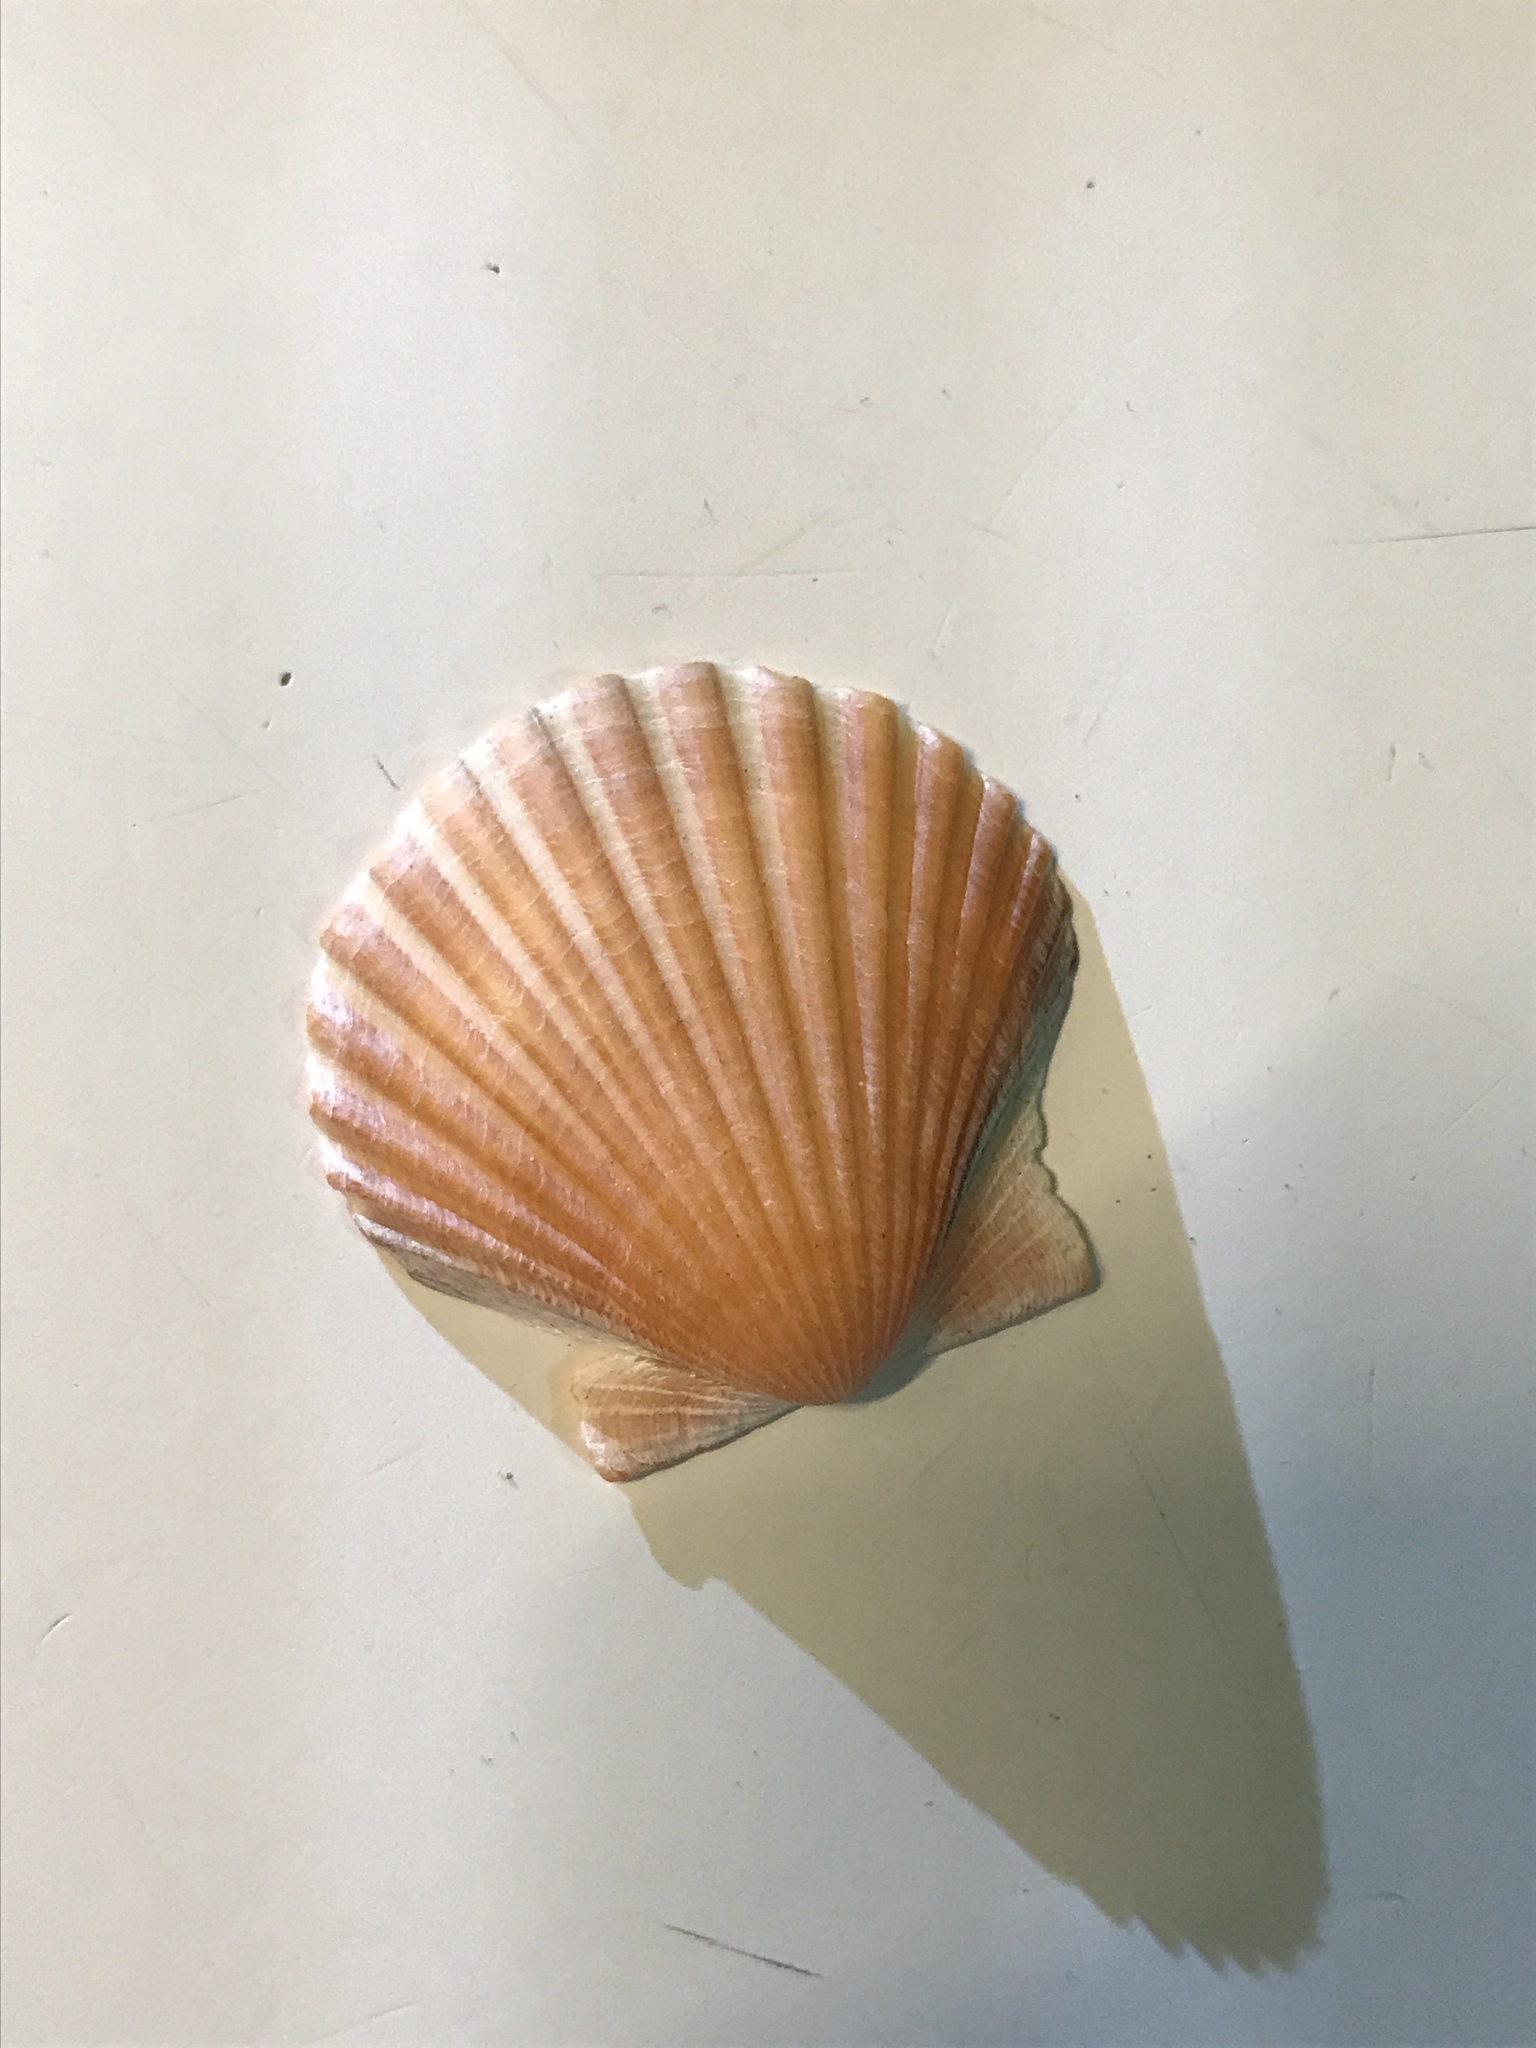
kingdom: Animalia
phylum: Mollusca
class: Bivalvia
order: Pectinida
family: Pectinidae
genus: Argopecten
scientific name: Argopecten irradians
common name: Atlantic bay scallop
